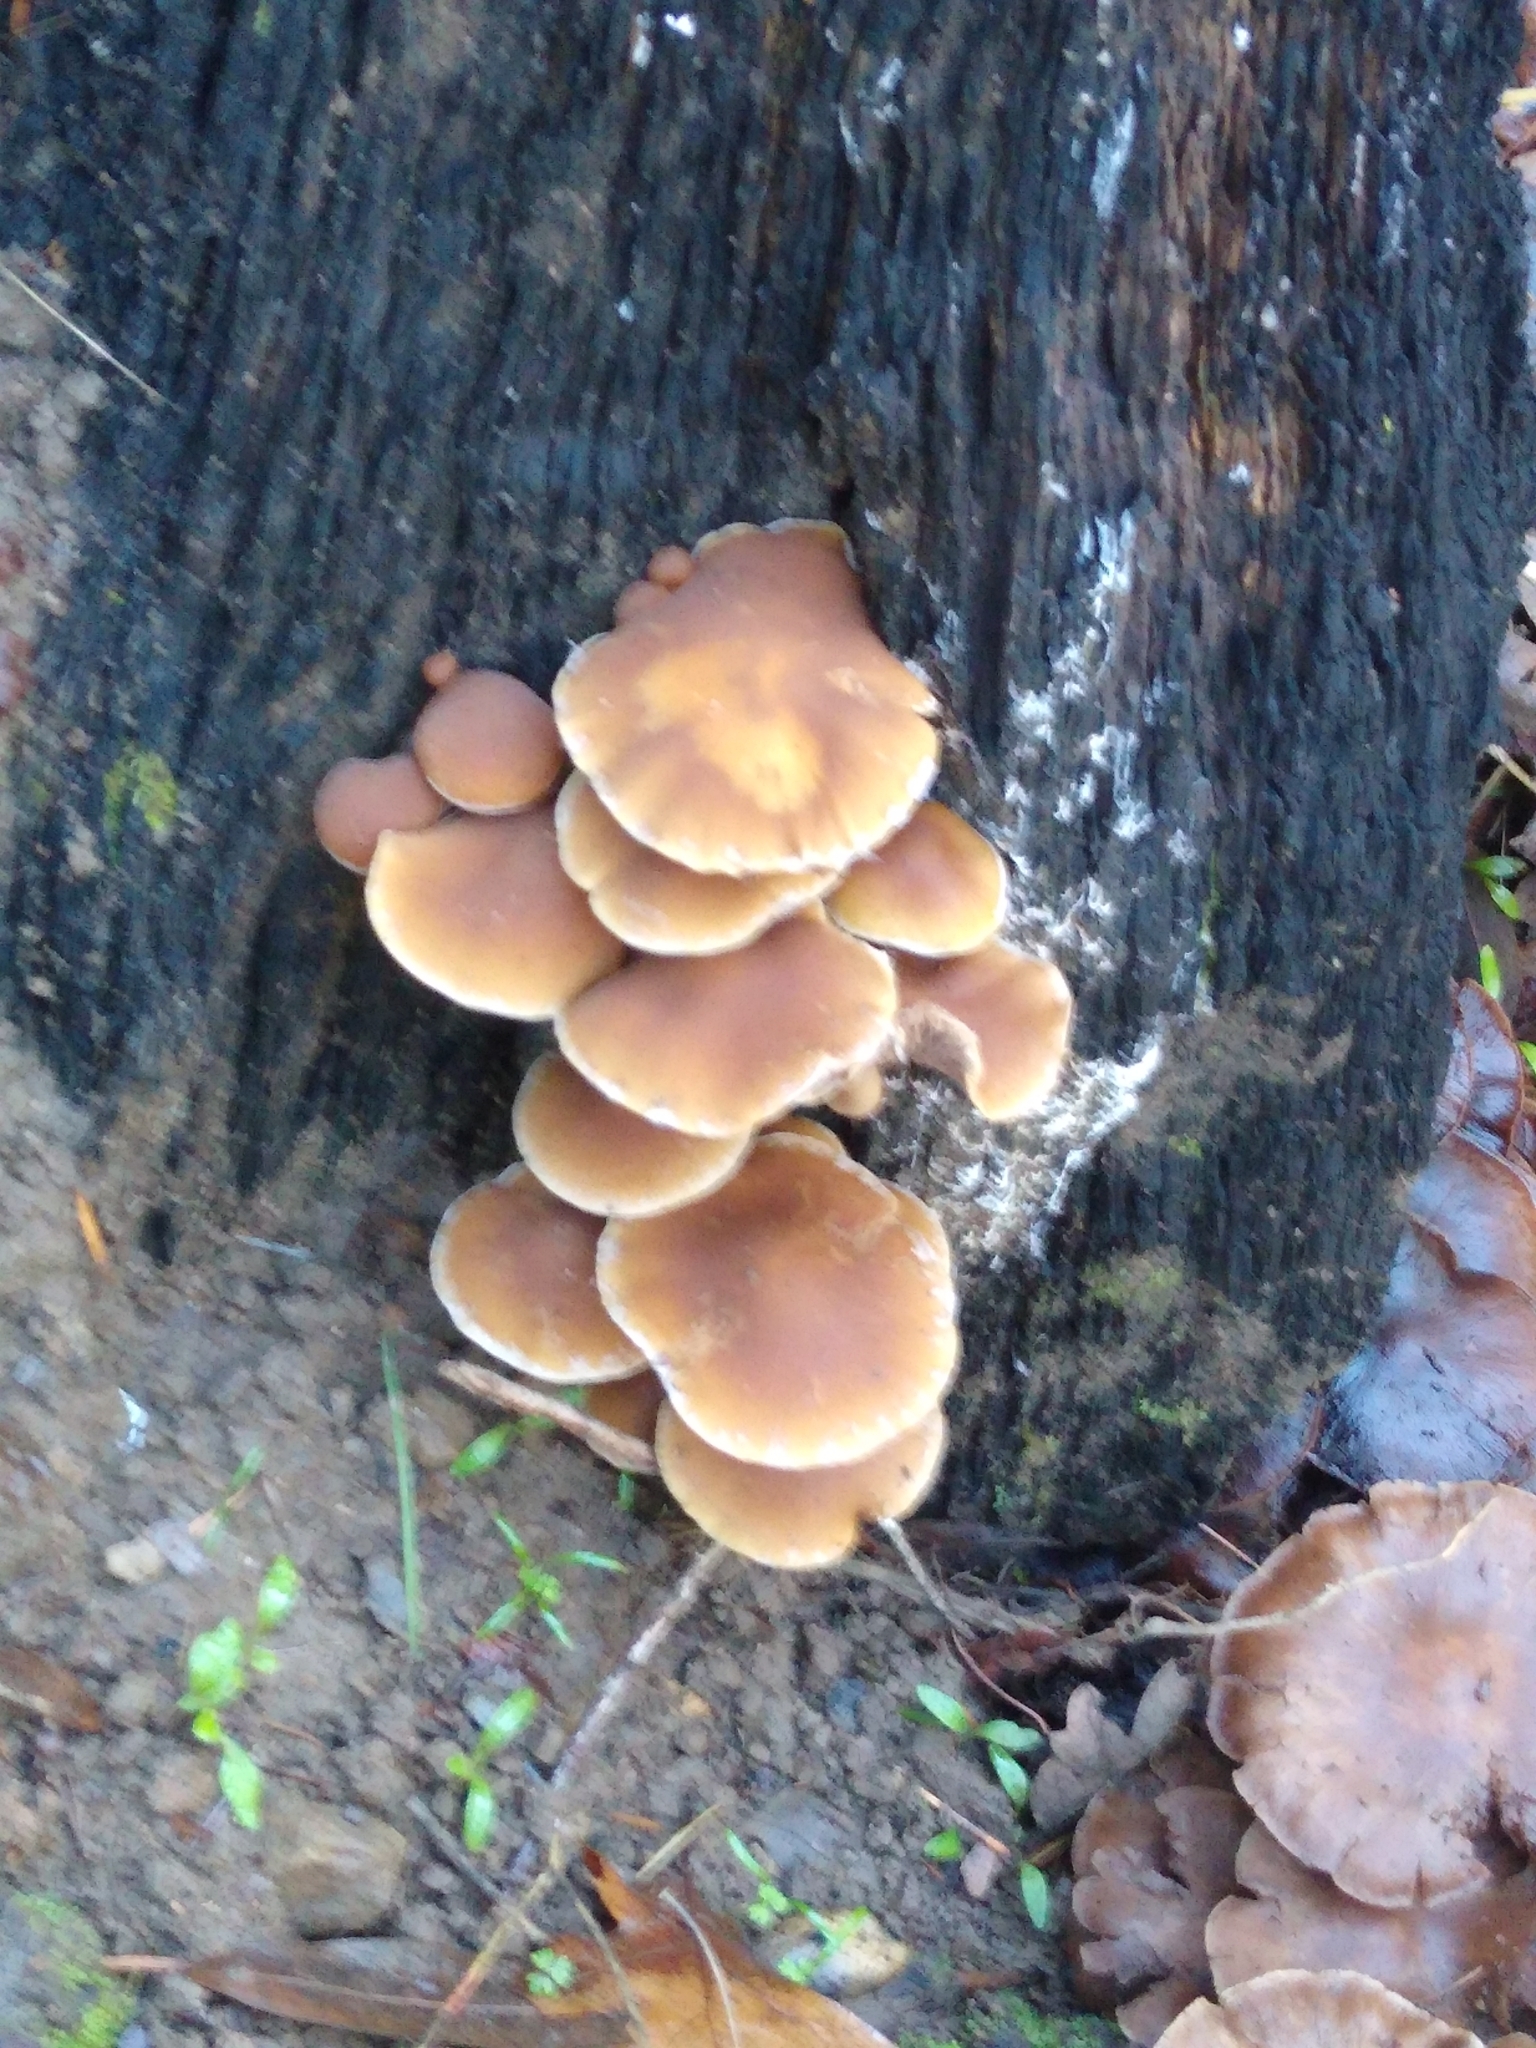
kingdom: Fungi
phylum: Basidiomycota
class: Agaricomycetes
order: Agaricales
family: Psathyrellaceae
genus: Psathyrella
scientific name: Psathyrella piluliformis
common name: Common stump brittlestem
